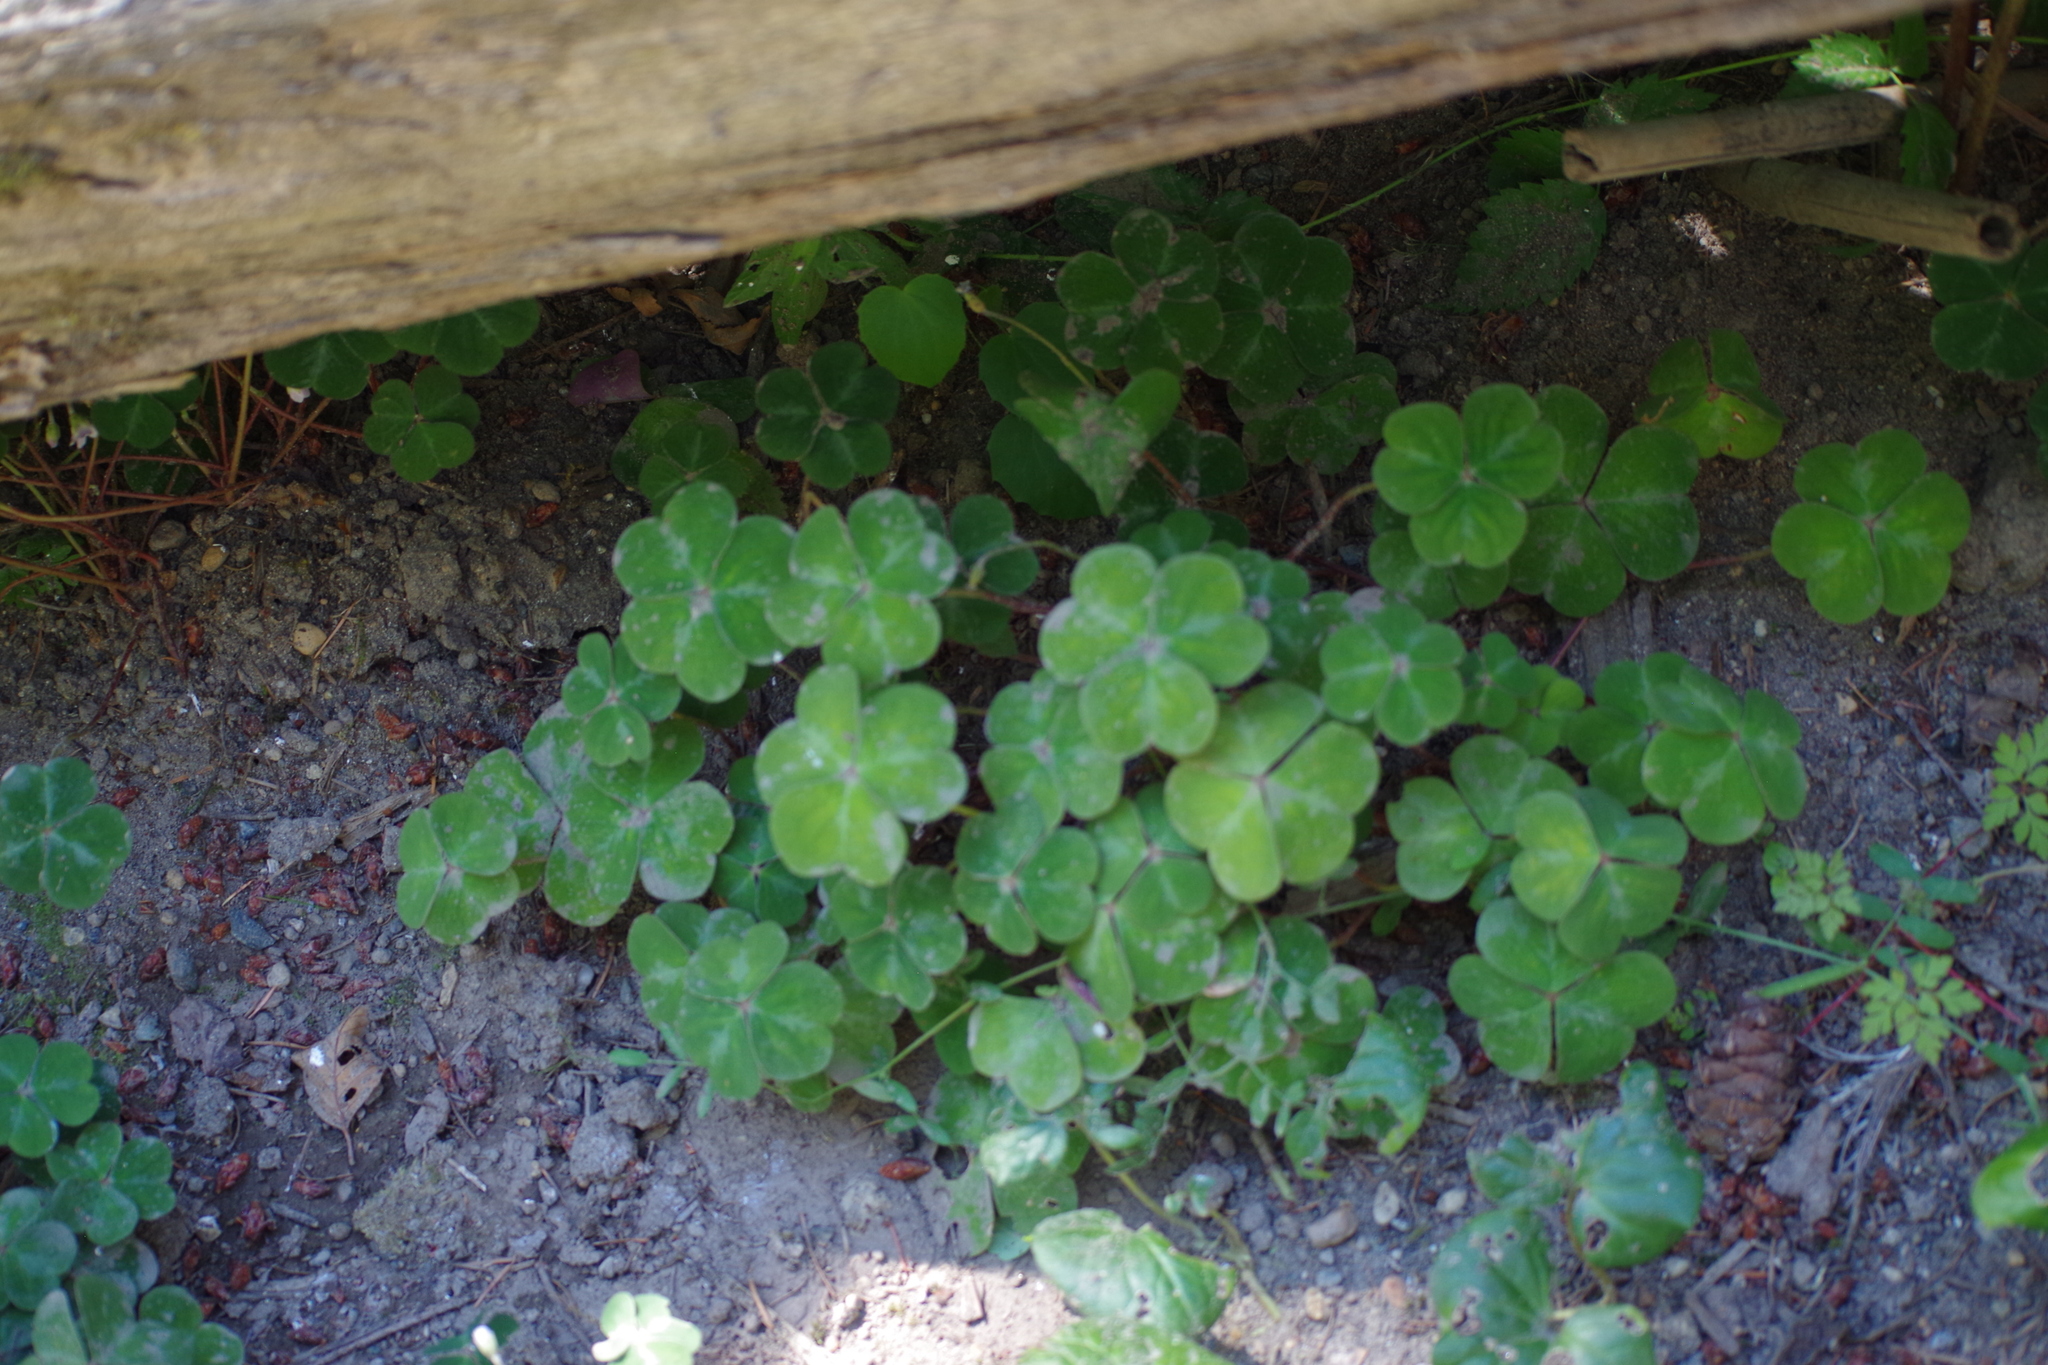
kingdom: Plantae
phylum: Tracheophyta
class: Magnoliopsida
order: Oxalidales
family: Oxalidaceae
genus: Oxalis
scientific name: Oxalis oregana
